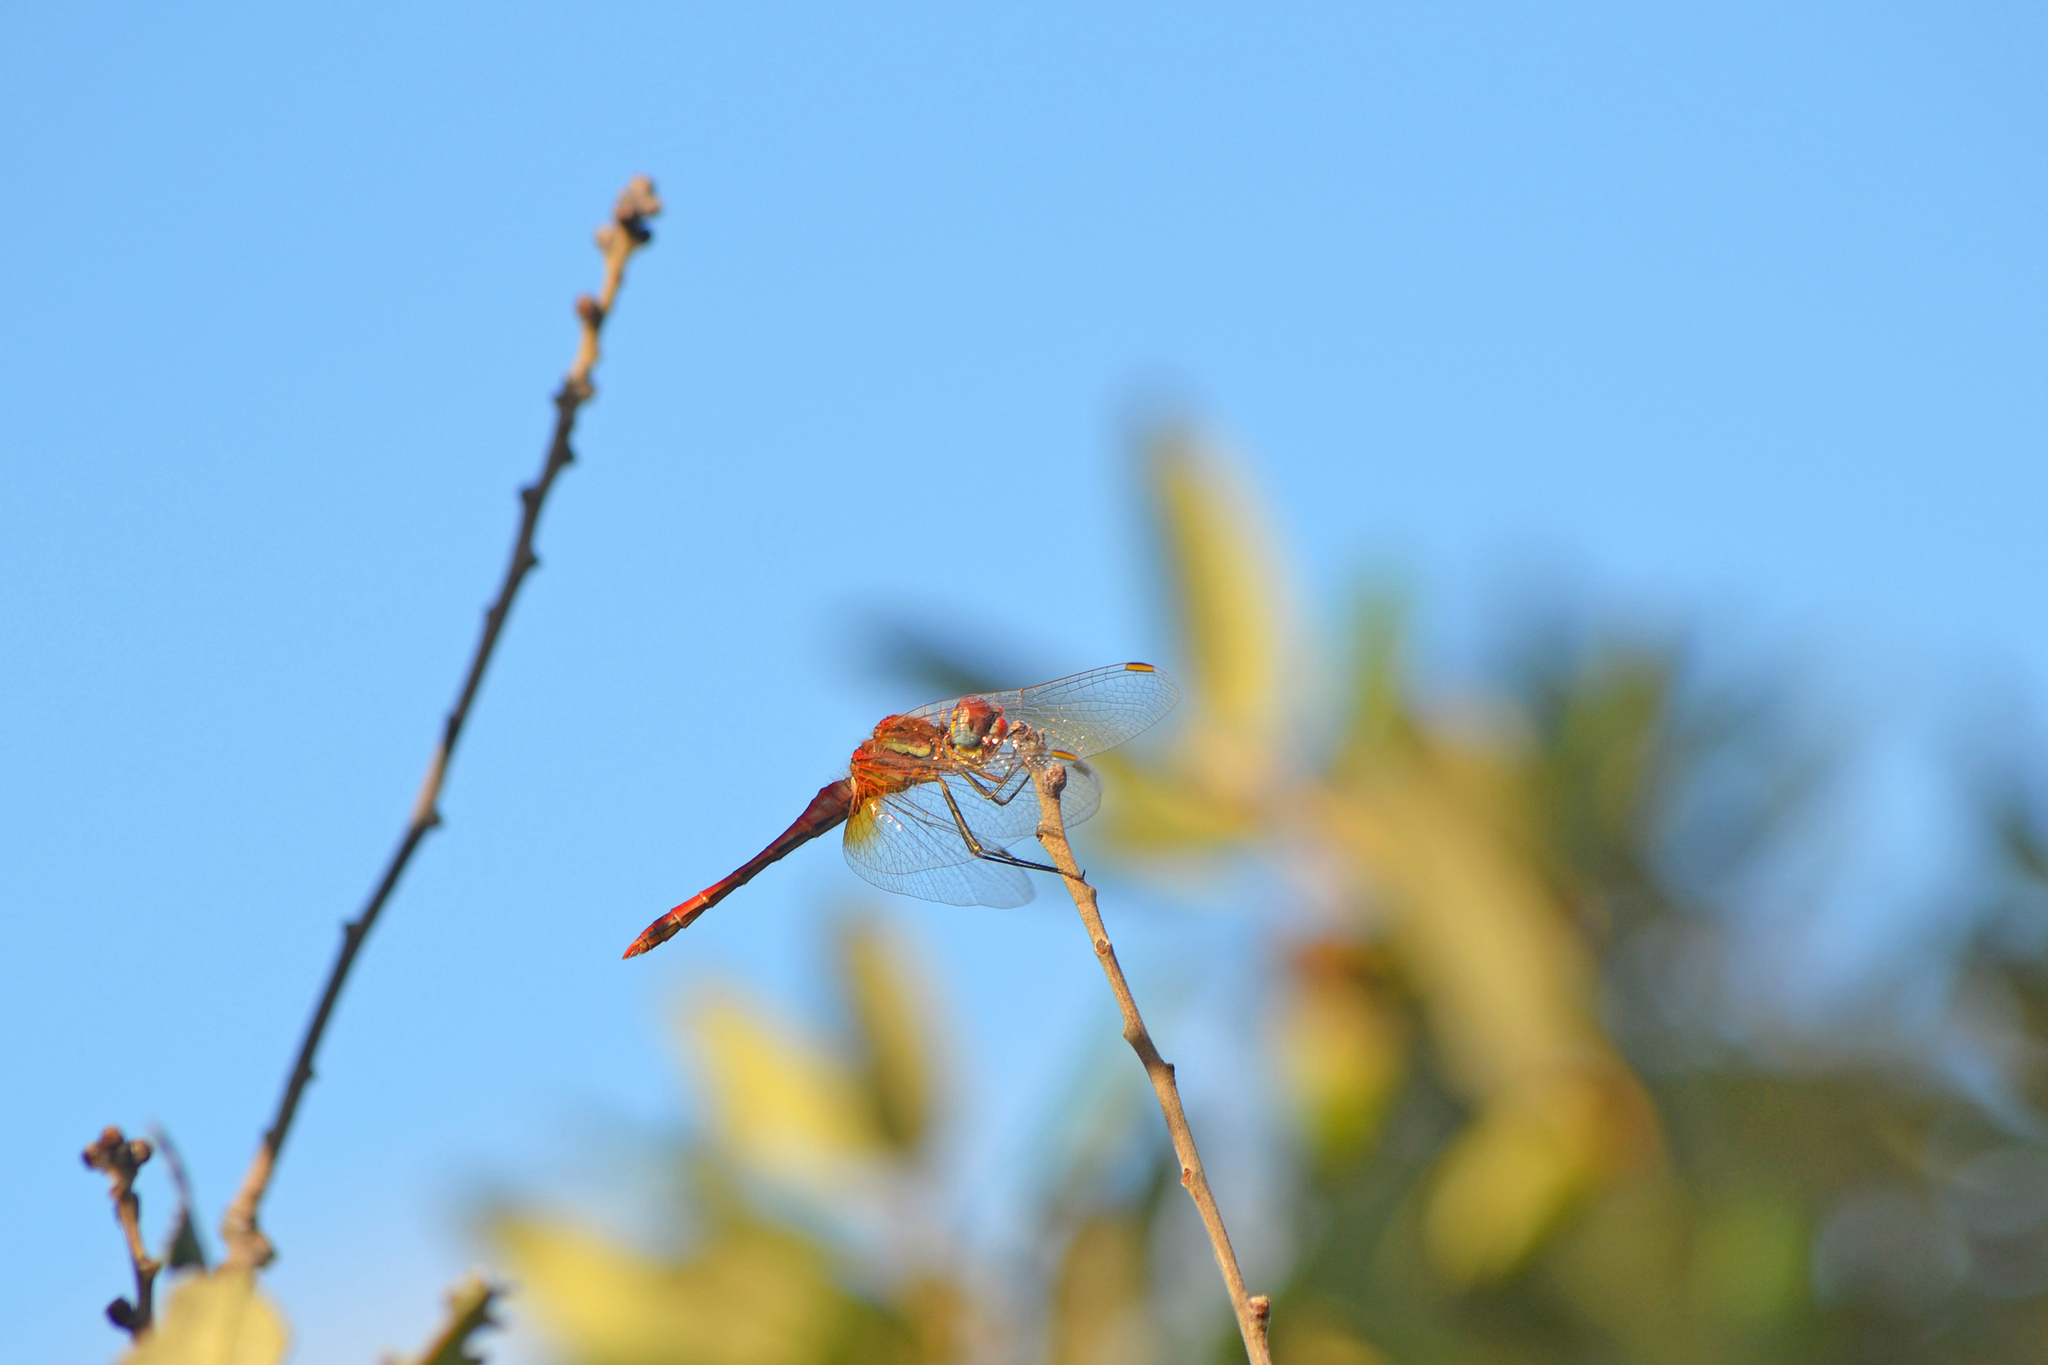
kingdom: Animalia
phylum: Arthropoda
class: Insecta
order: Odonata
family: Libellulidae
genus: Sympetrum
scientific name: Sympetrum fonscolombii
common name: Red-veined darter
